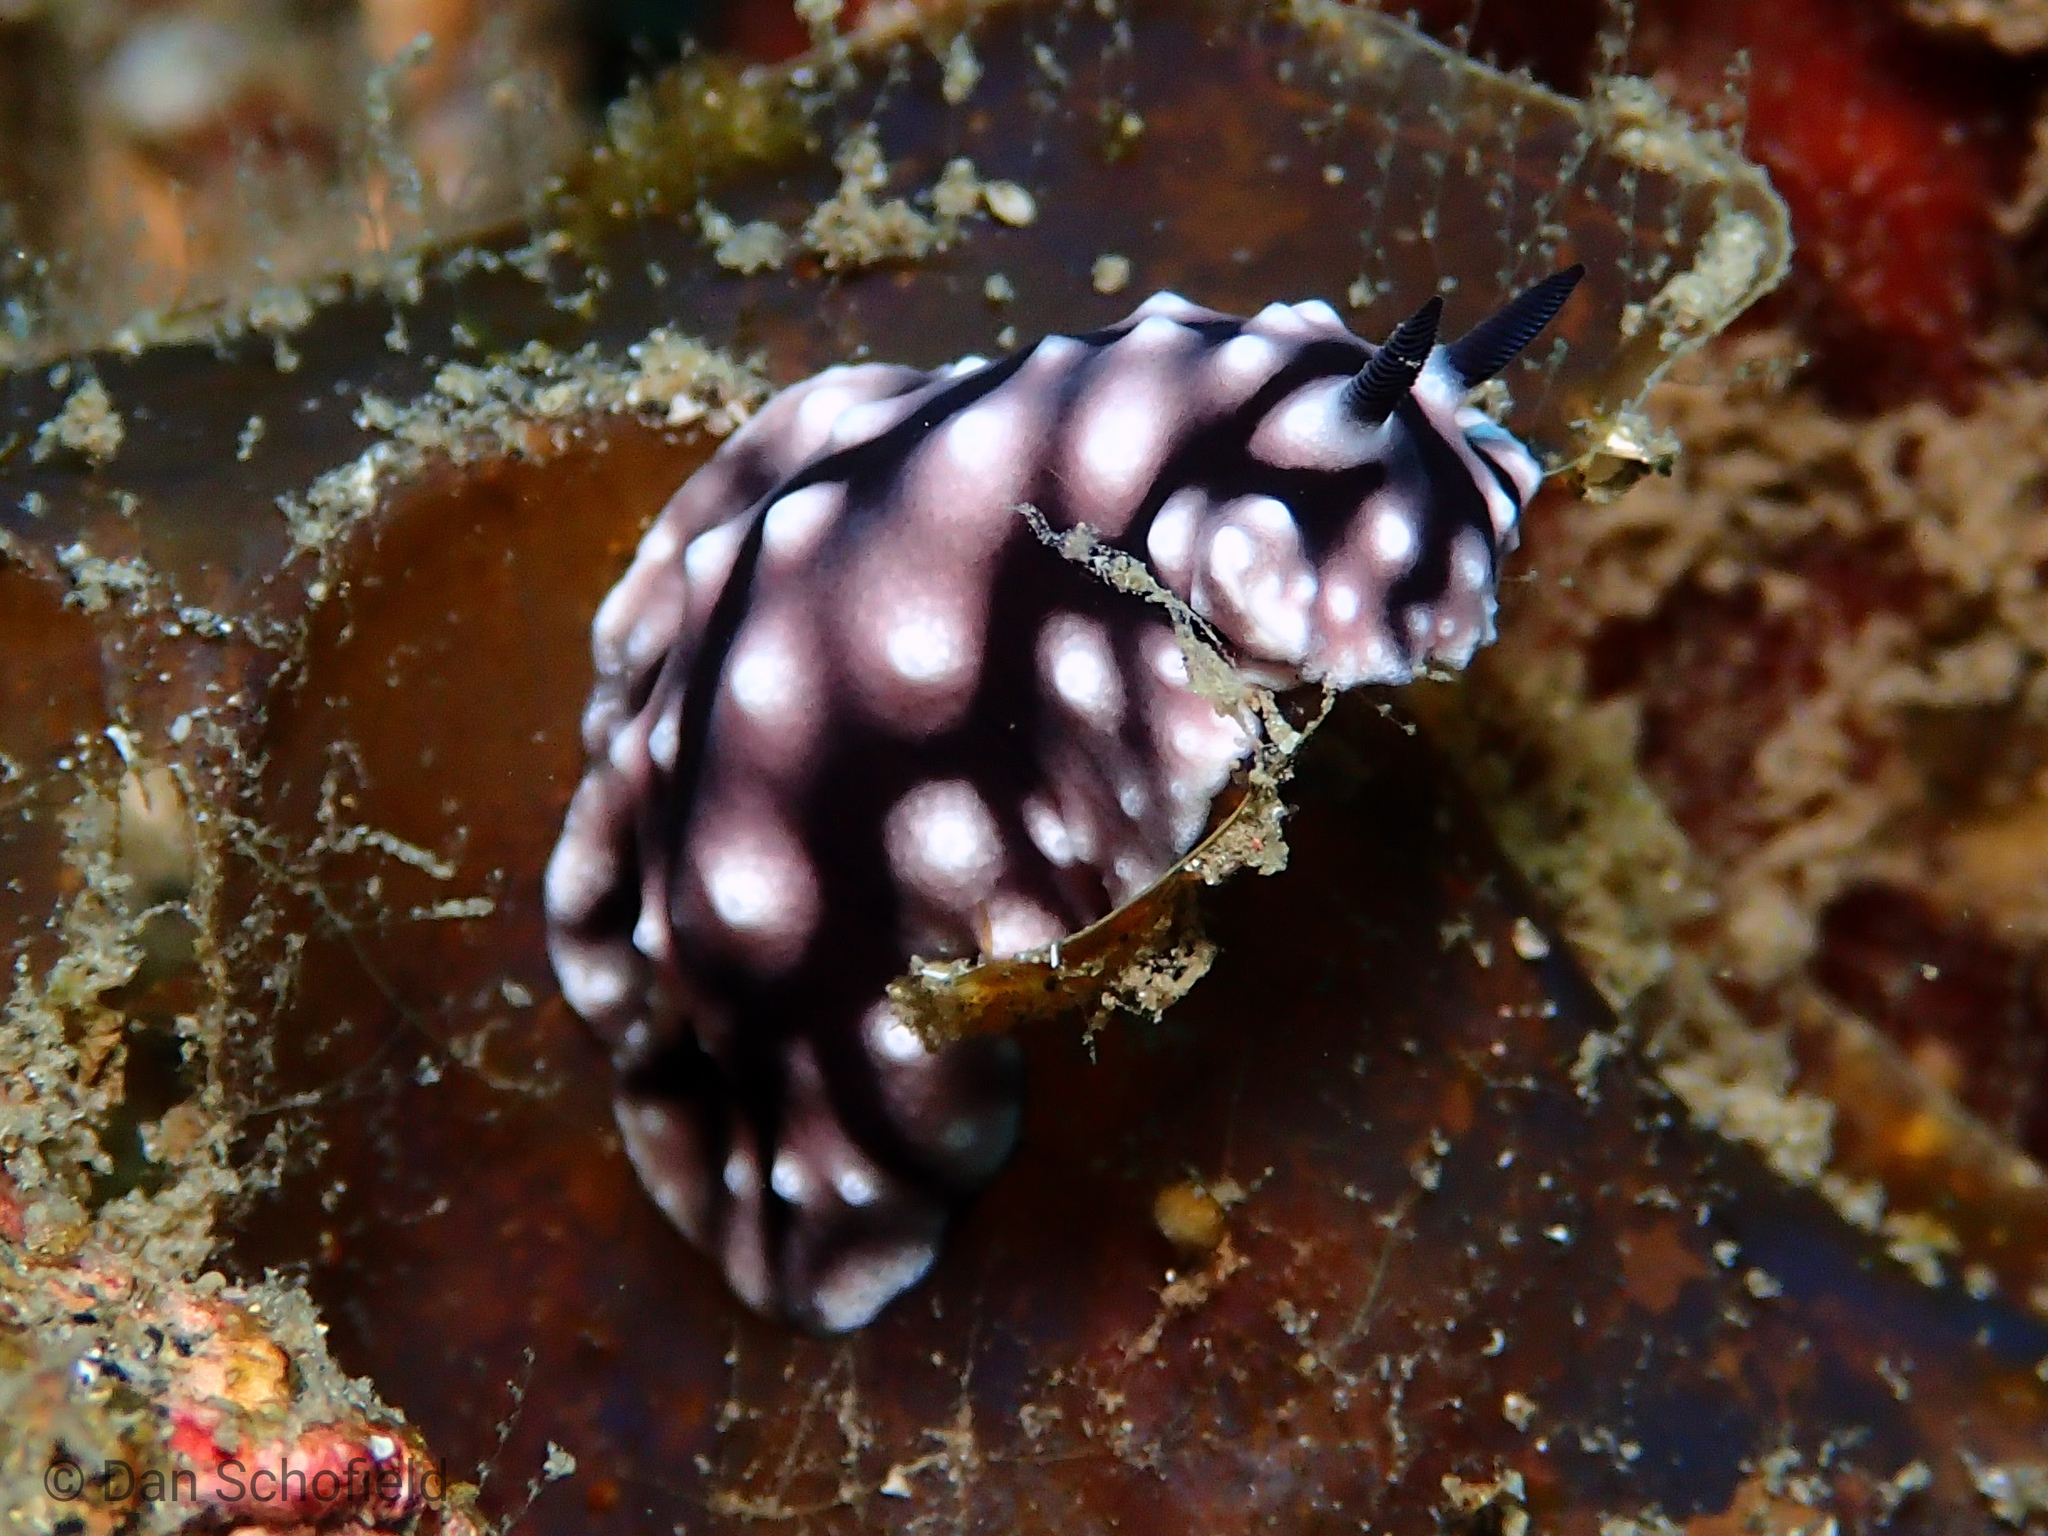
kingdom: Animalia
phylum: Mollusca
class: Gastropoda
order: Nudibranchia
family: Discodorididae
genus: Paradoris
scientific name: Paradoris liturata
